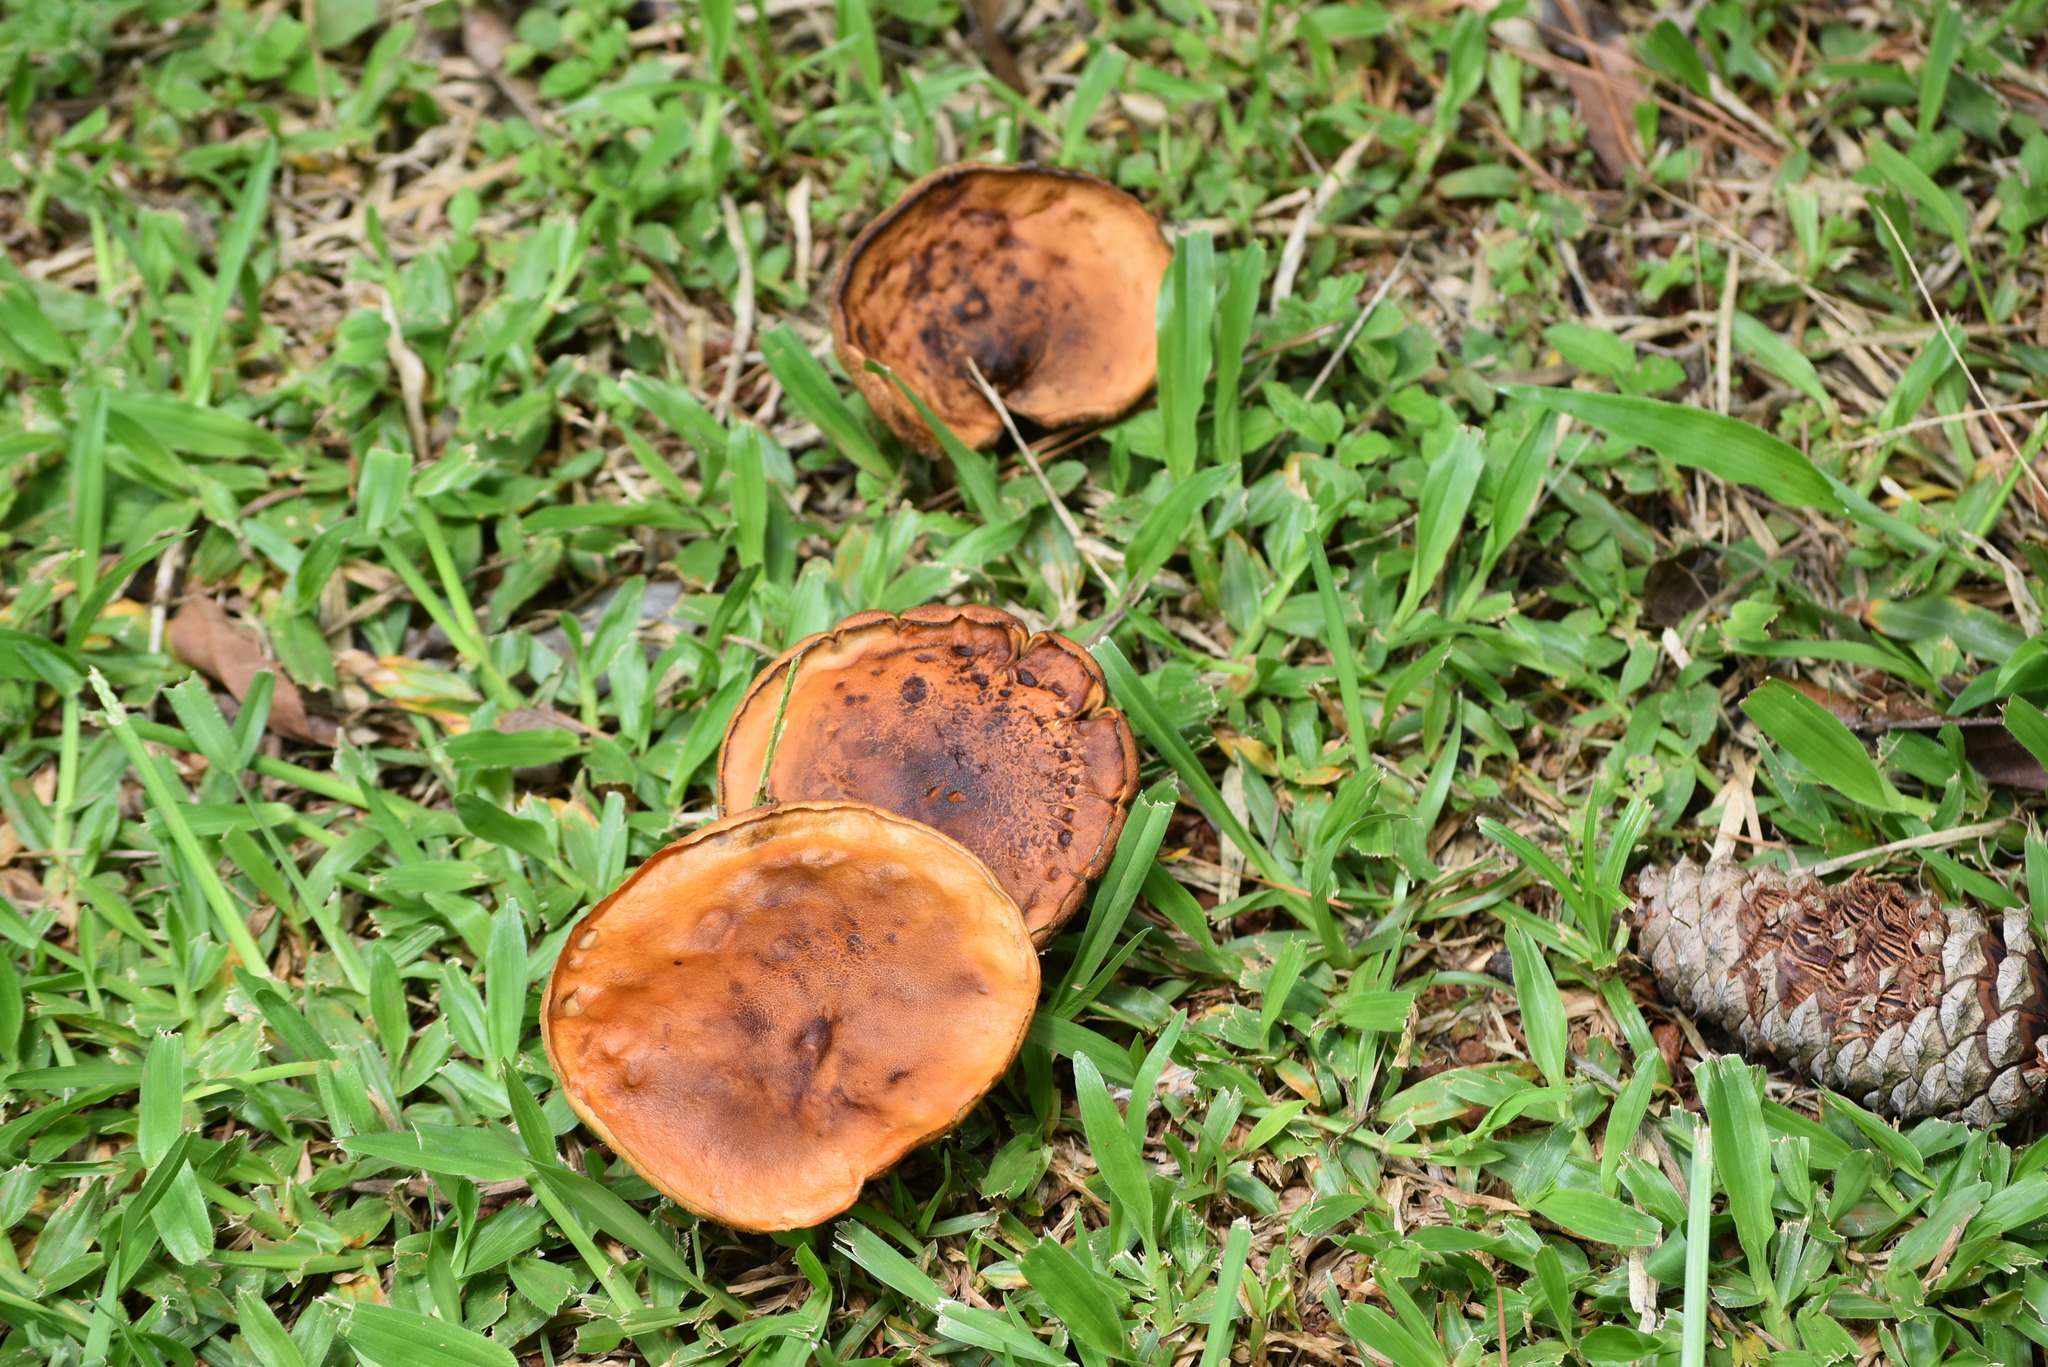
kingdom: Fungi
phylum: Basidiomycota
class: Agaricomycetes
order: Boletales
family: Suillaceae
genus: Suillus
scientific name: Suillus granulatus
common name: Weeping bolete
